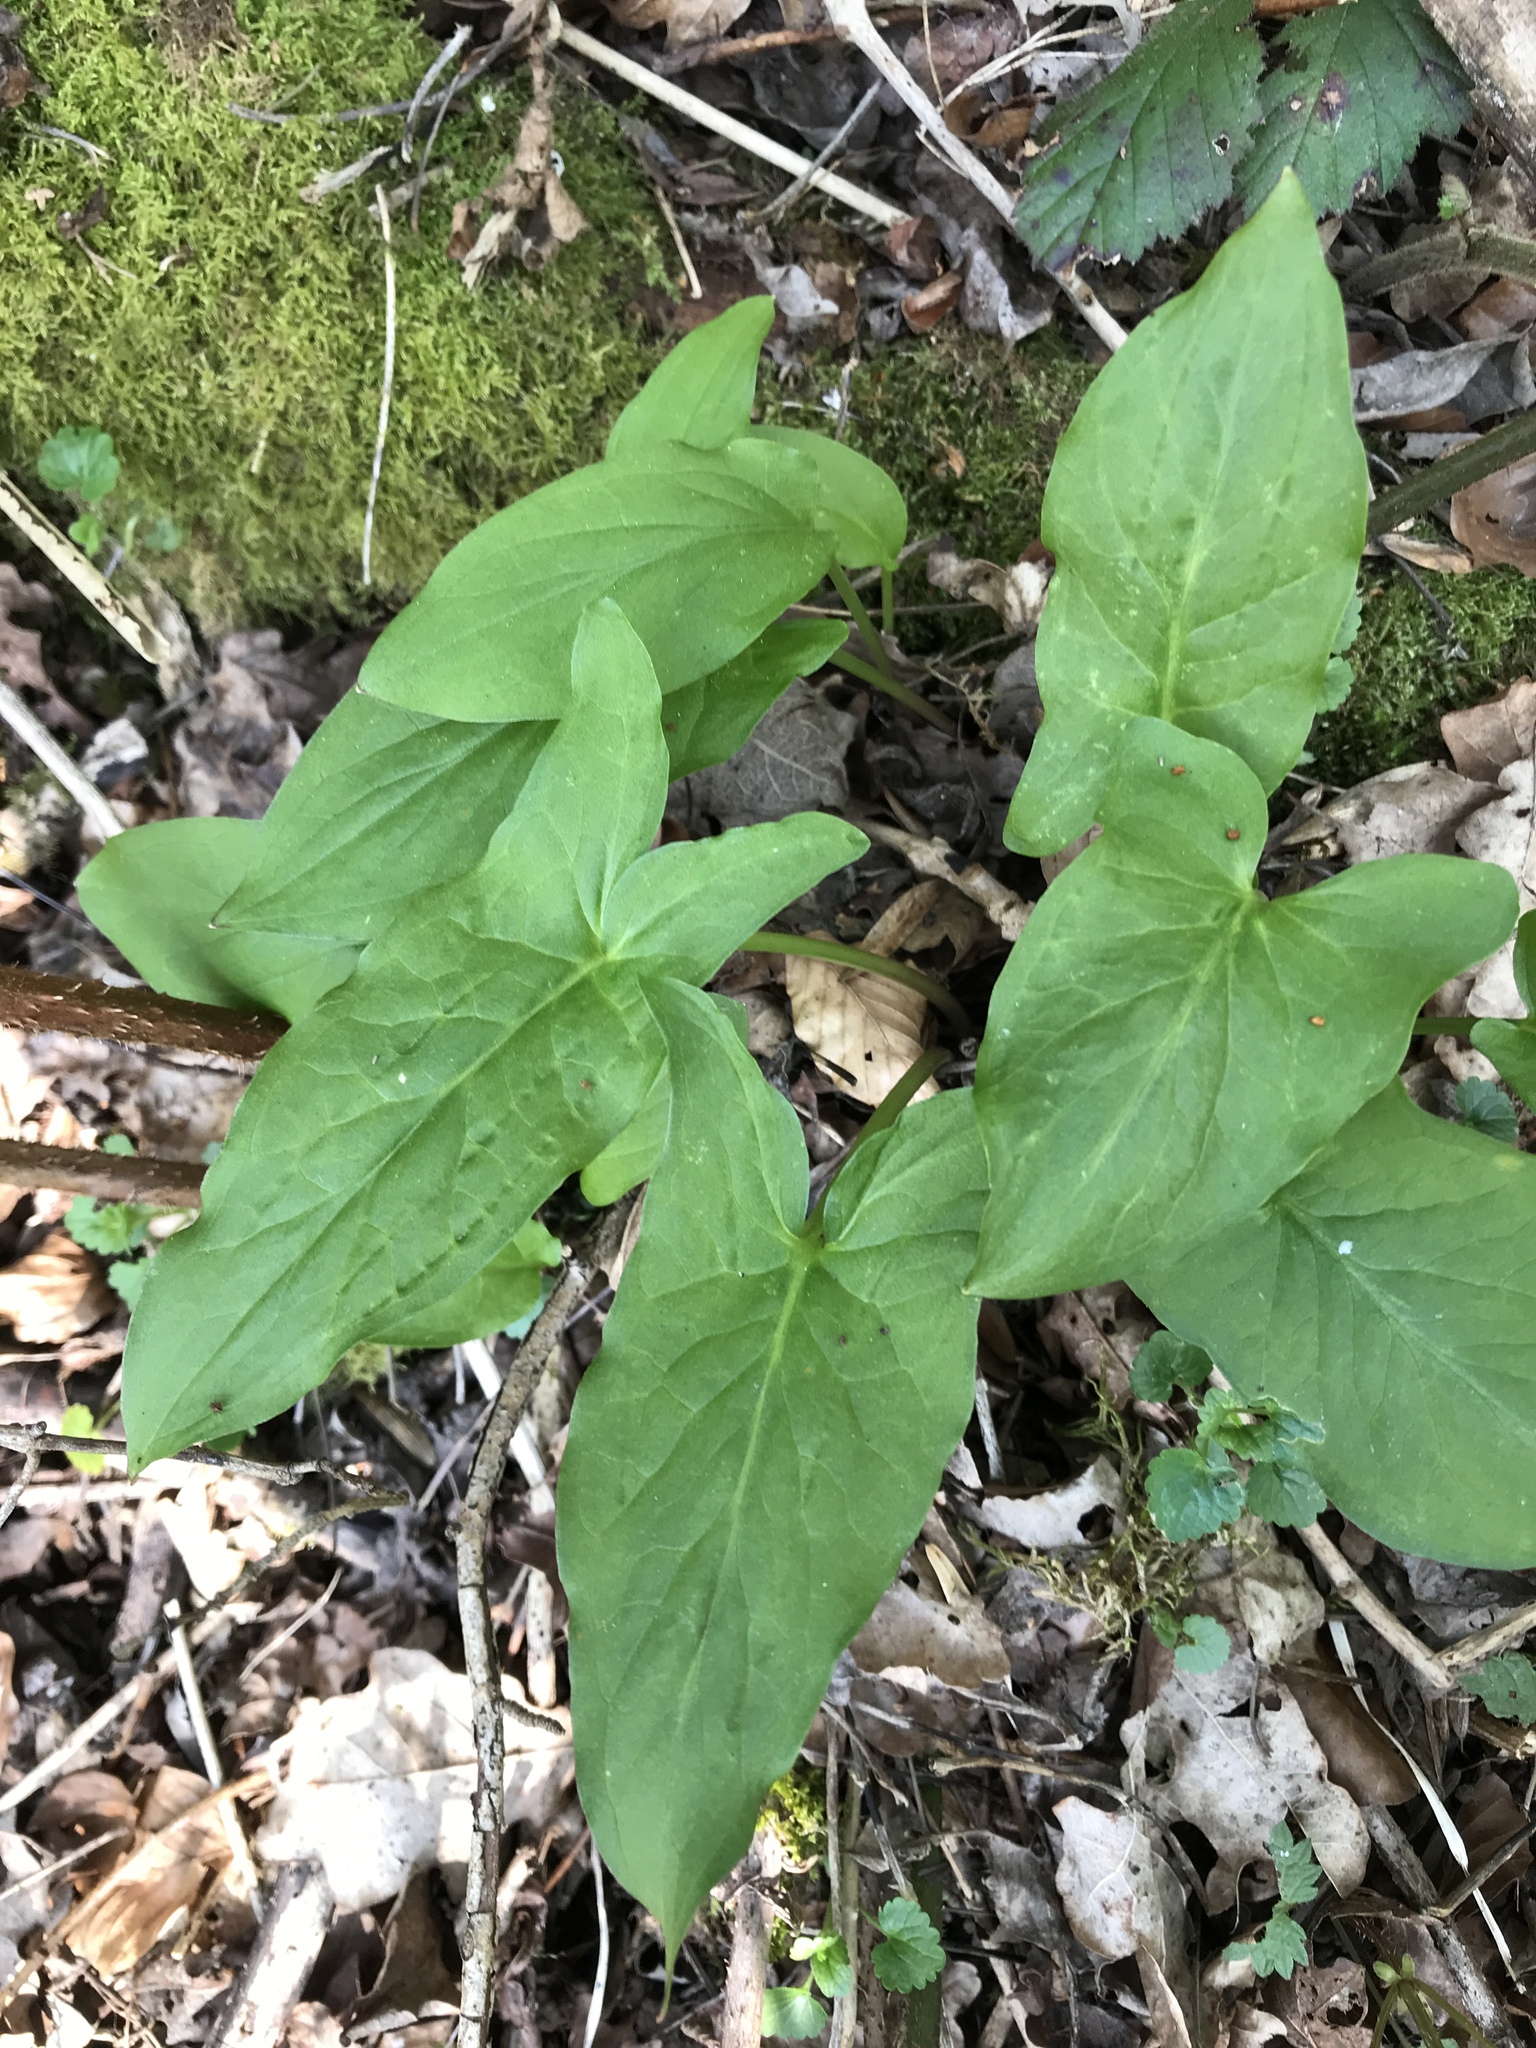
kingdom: Plantae
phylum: Tracheophyta
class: Liliopsida
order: Alismatales
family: Araceae
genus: Arum
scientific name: Arum maculatum
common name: Lords-and-ladies
